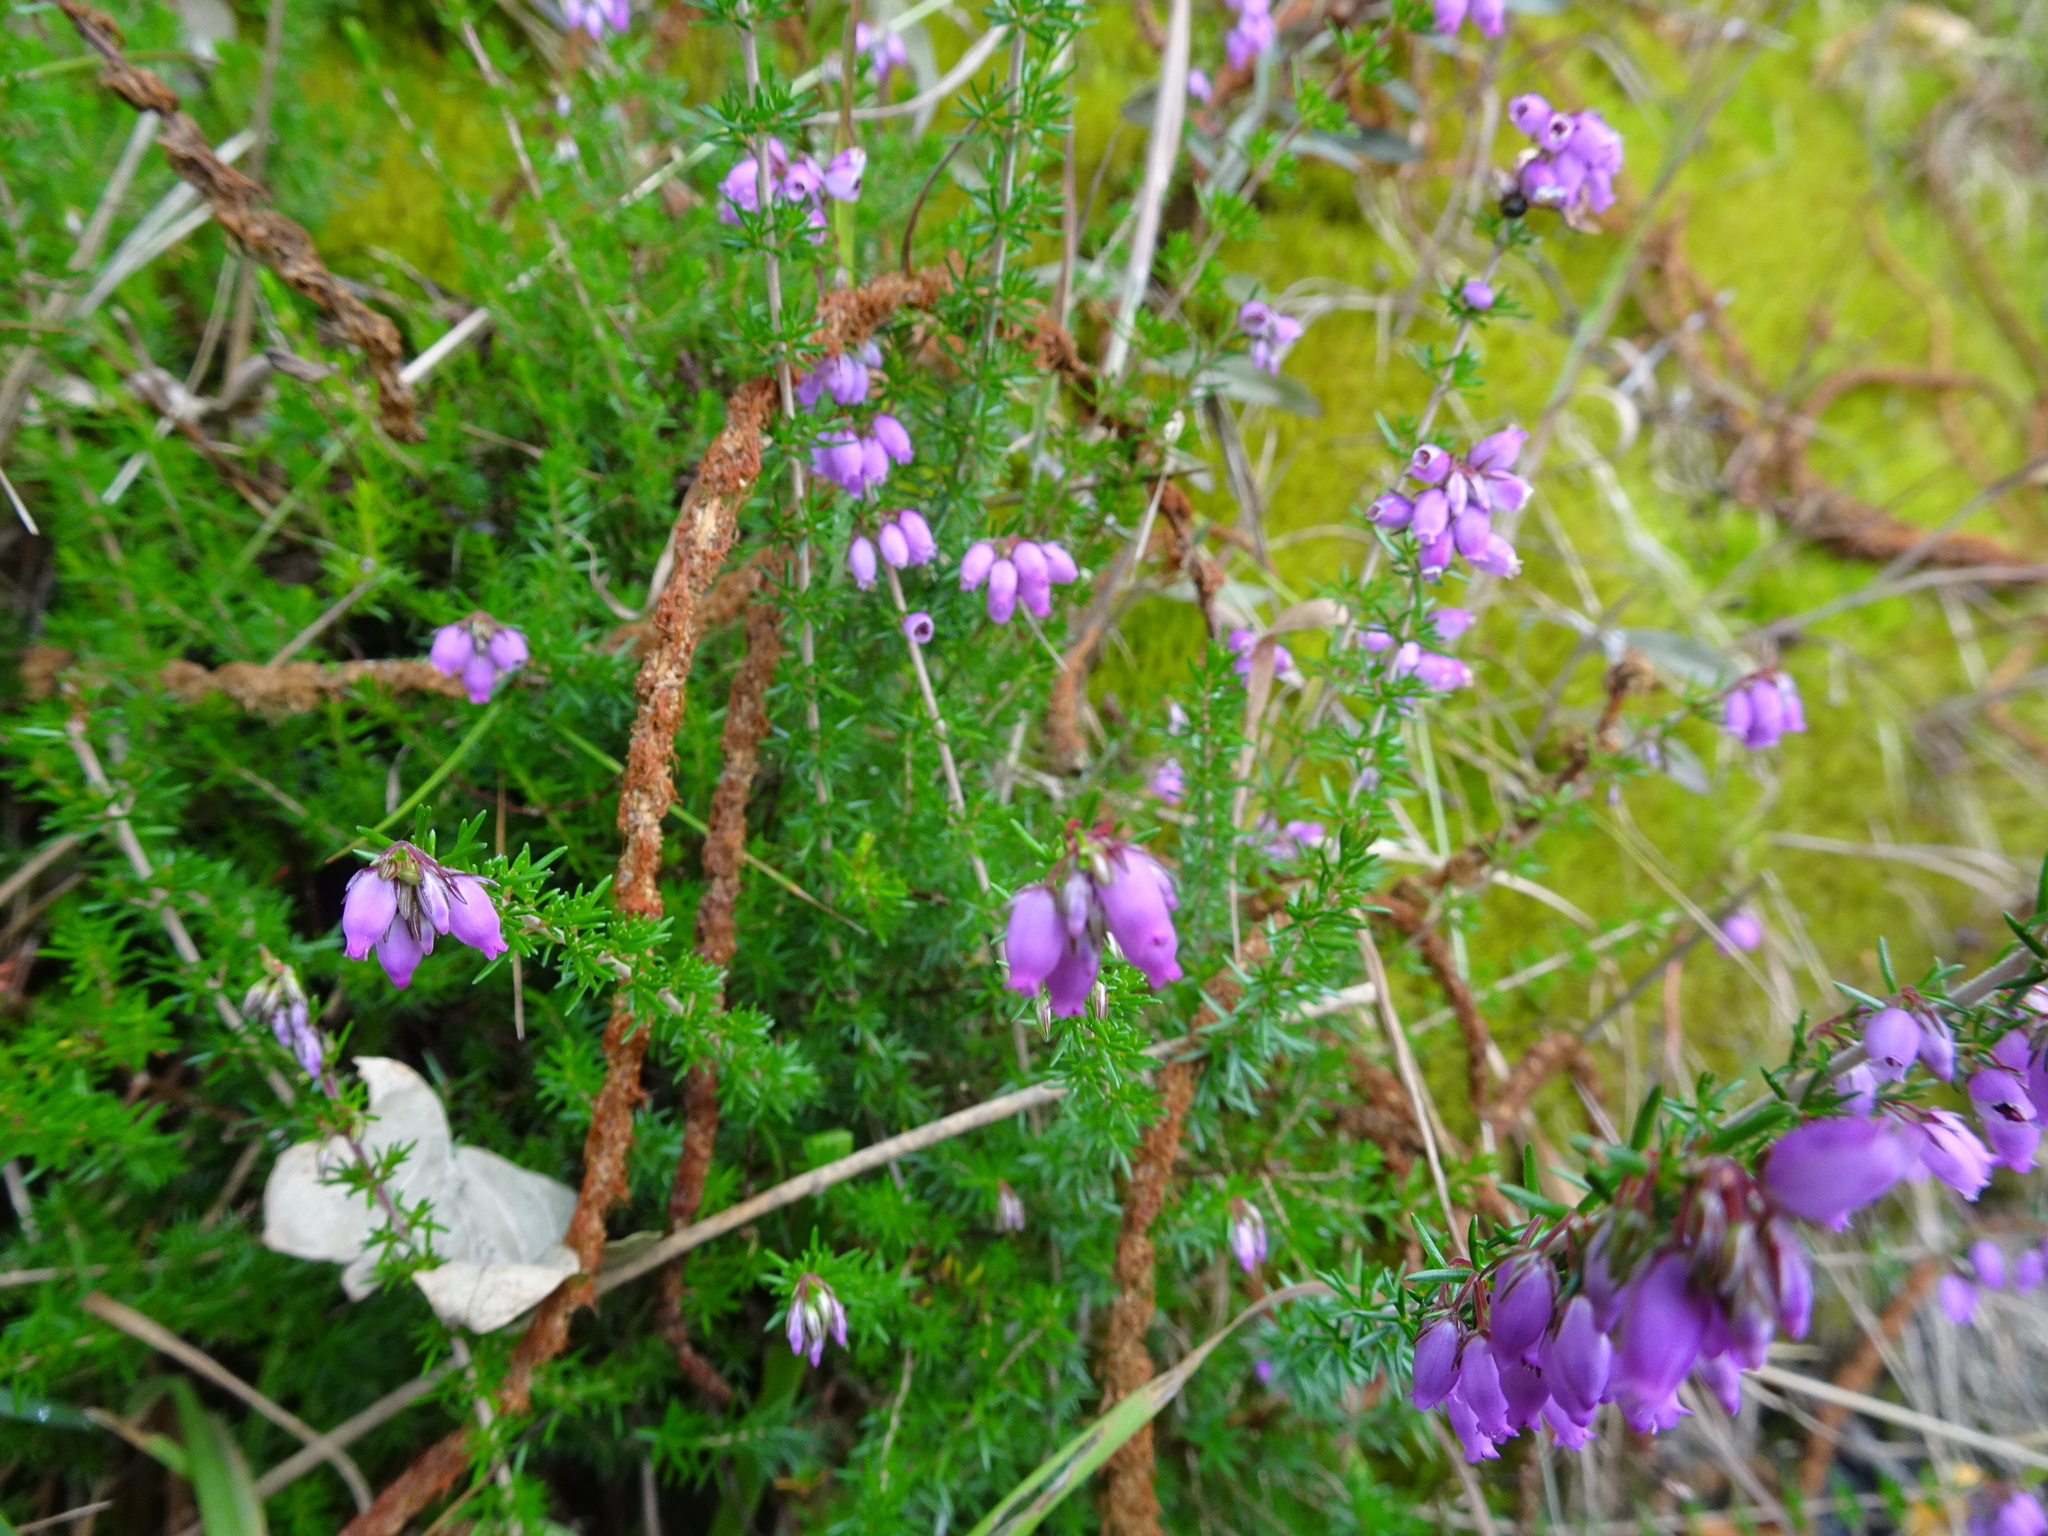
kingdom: Plantae
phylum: Tracheophyta
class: Magnoliopsida
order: Ericales
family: Ericaceae
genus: Erica
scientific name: Erica cinerea
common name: Bell heather
